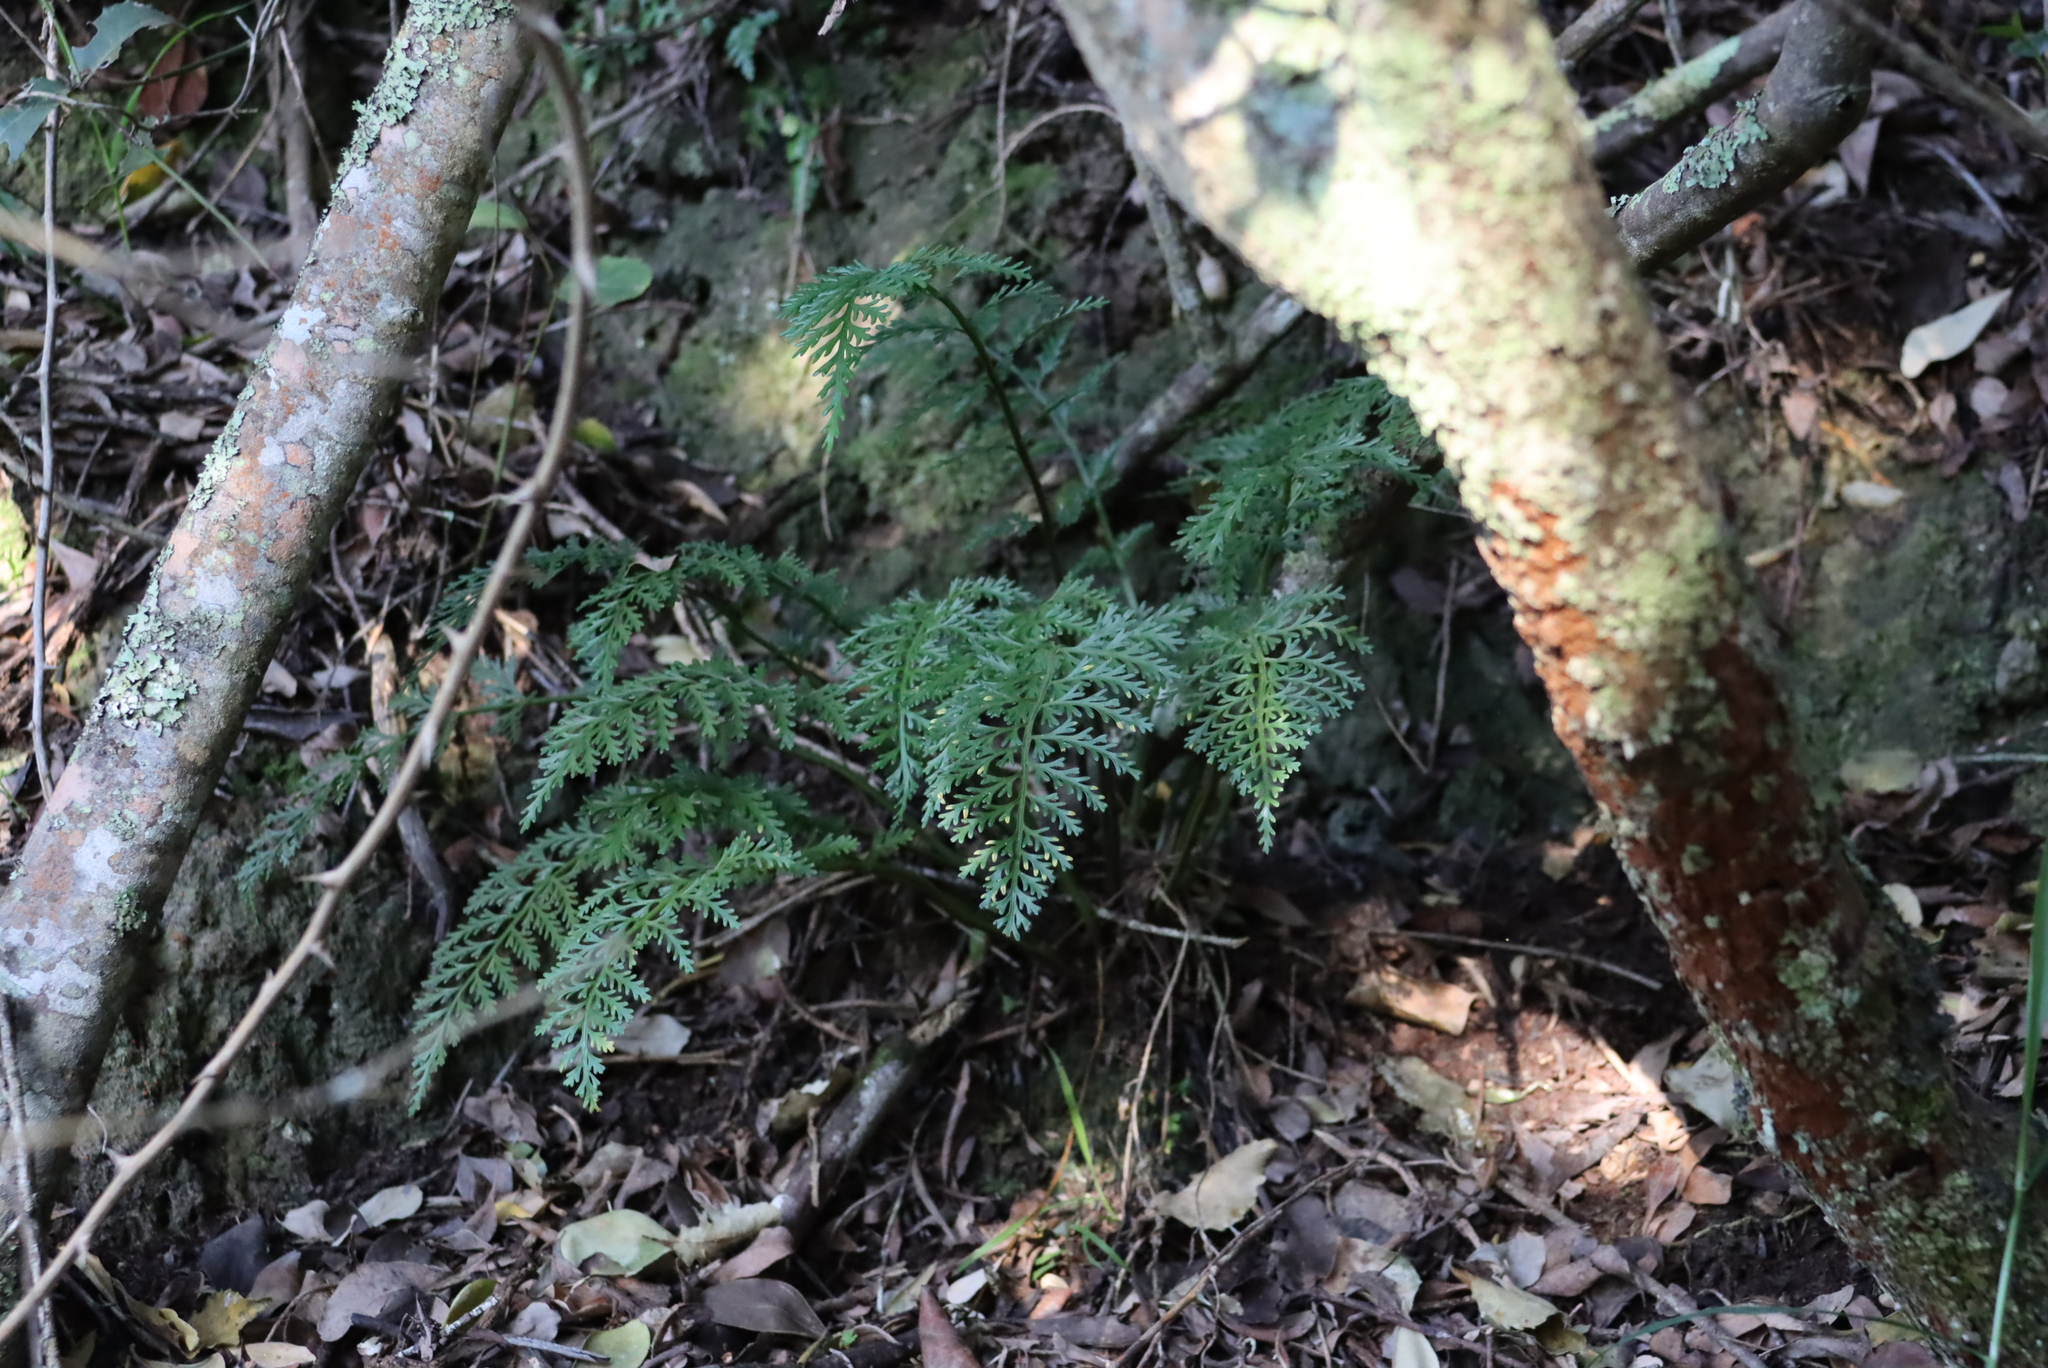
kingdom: Plantae
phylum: Tracheophyta
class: Polypodiopsida
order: Polypodiales
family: Aspleniaceae
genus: Asplenium
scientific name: Asplenium rutifolium
